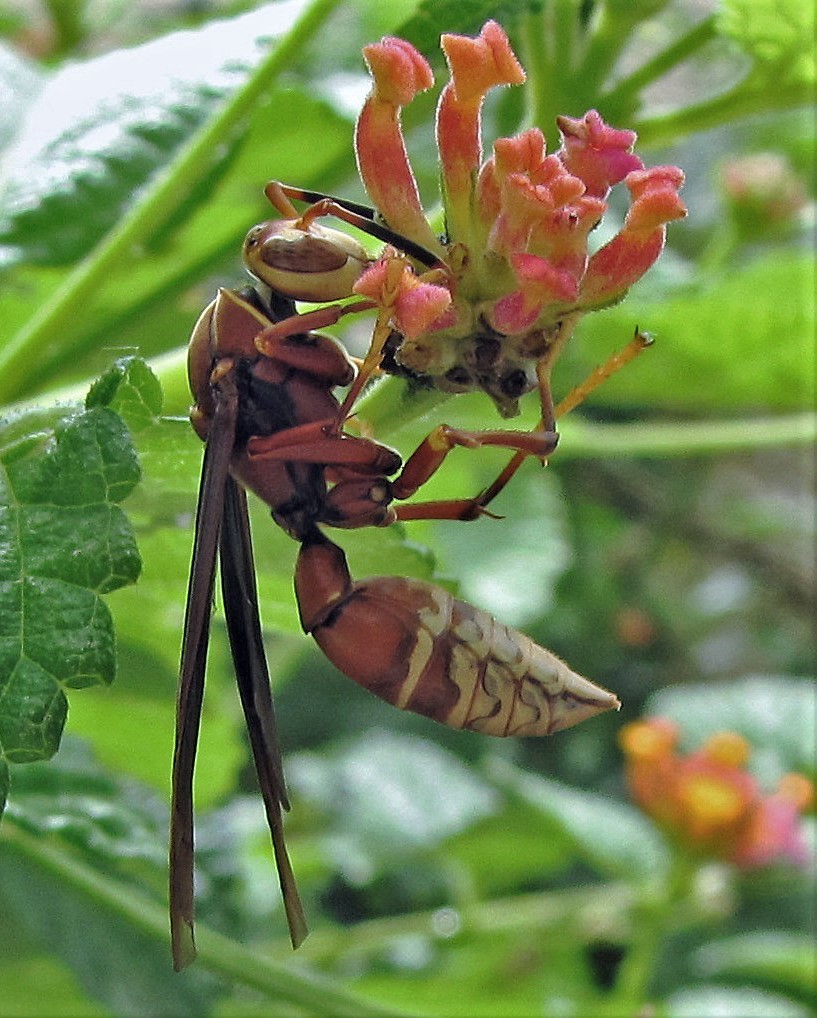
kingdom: Animalia
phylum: Arthropoda
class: Insecta
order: Hymenoptera
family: Eumenidae
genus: Polistes
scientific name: Polistes cavapyta
